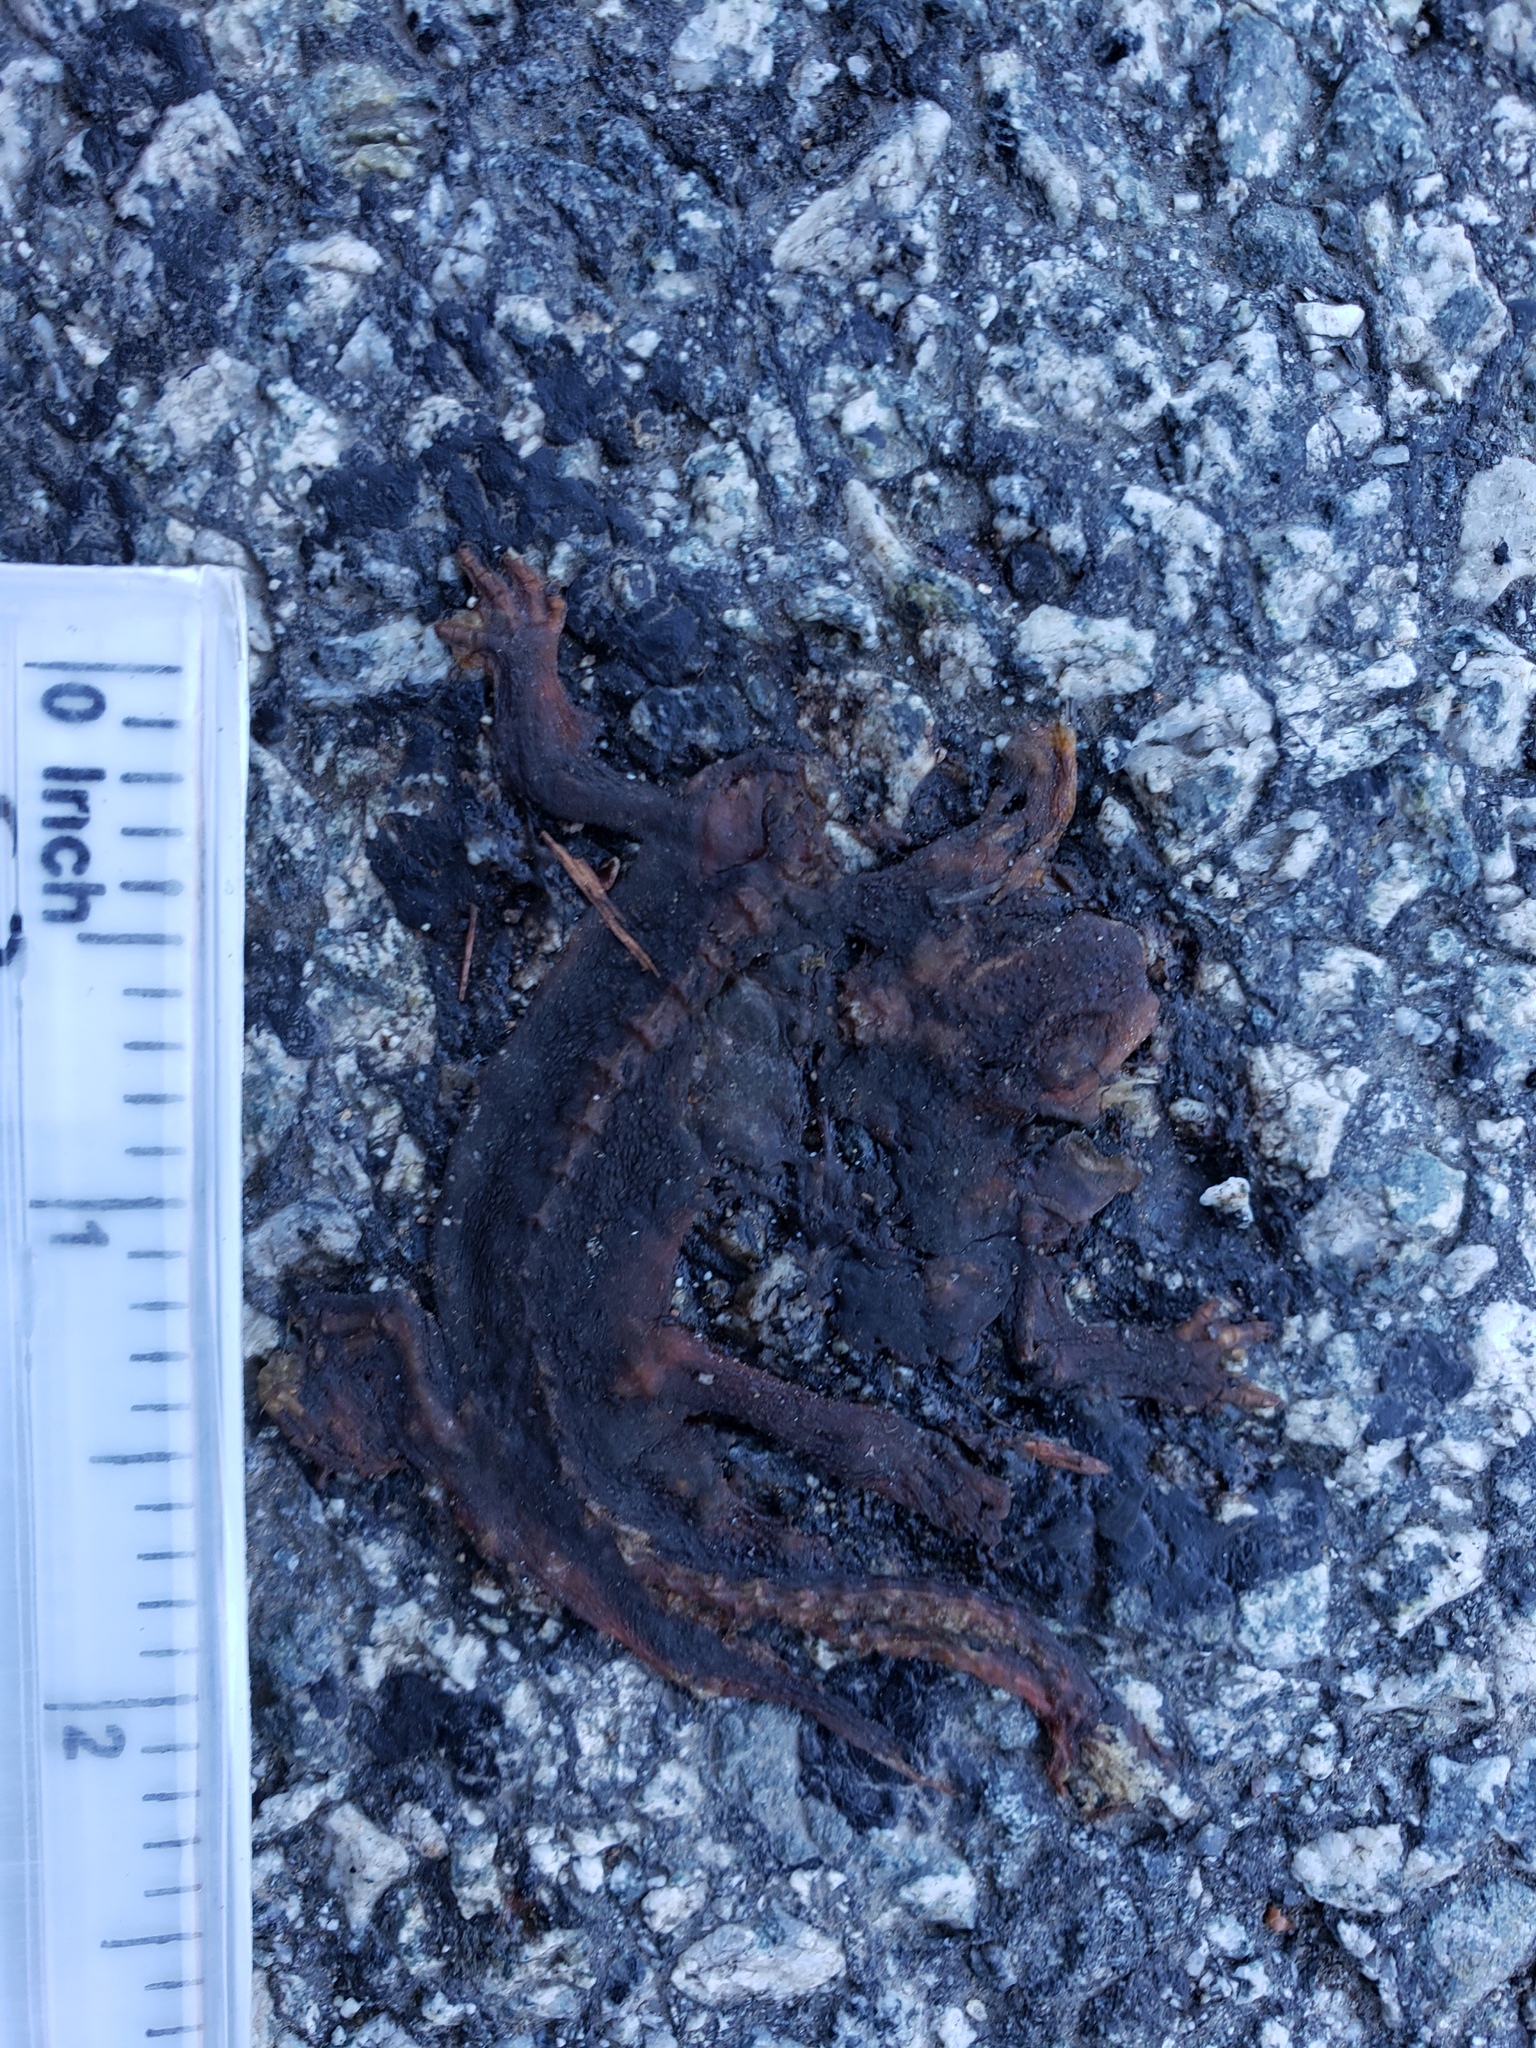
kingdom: Animalia
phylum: Chordata
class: Amphibia
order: Caudata
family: Salamandridae
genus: Taricha
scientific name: Taricha
